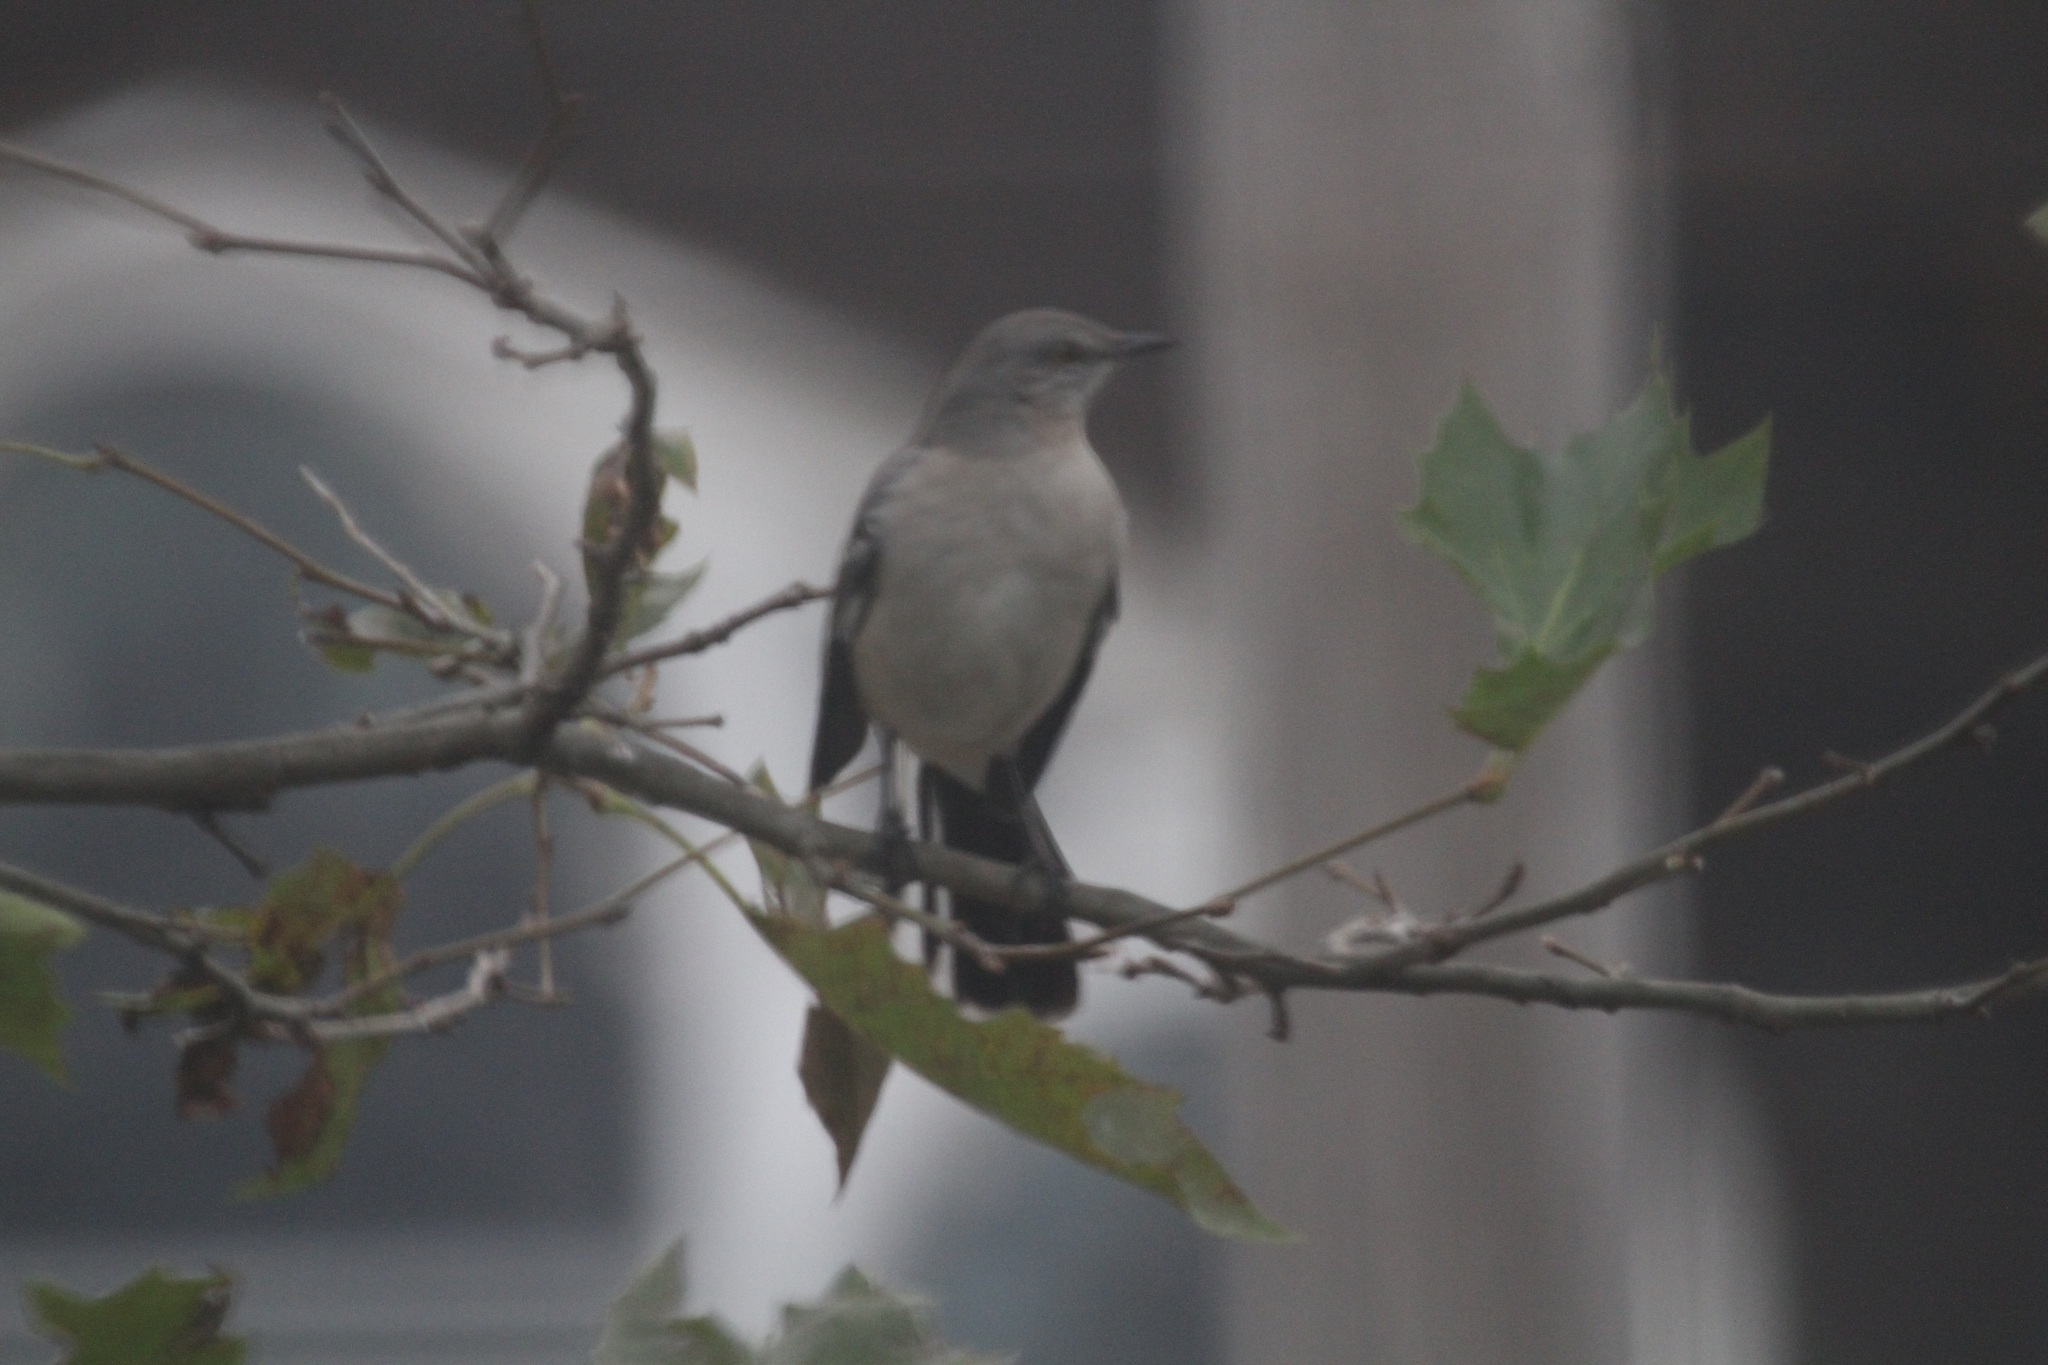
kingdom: Animalia
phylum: Chordata
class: Aves
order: Passeriformes
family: Mimidae
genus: Mimus
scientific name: Mimus polyglottos
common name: Northern mockingbird
